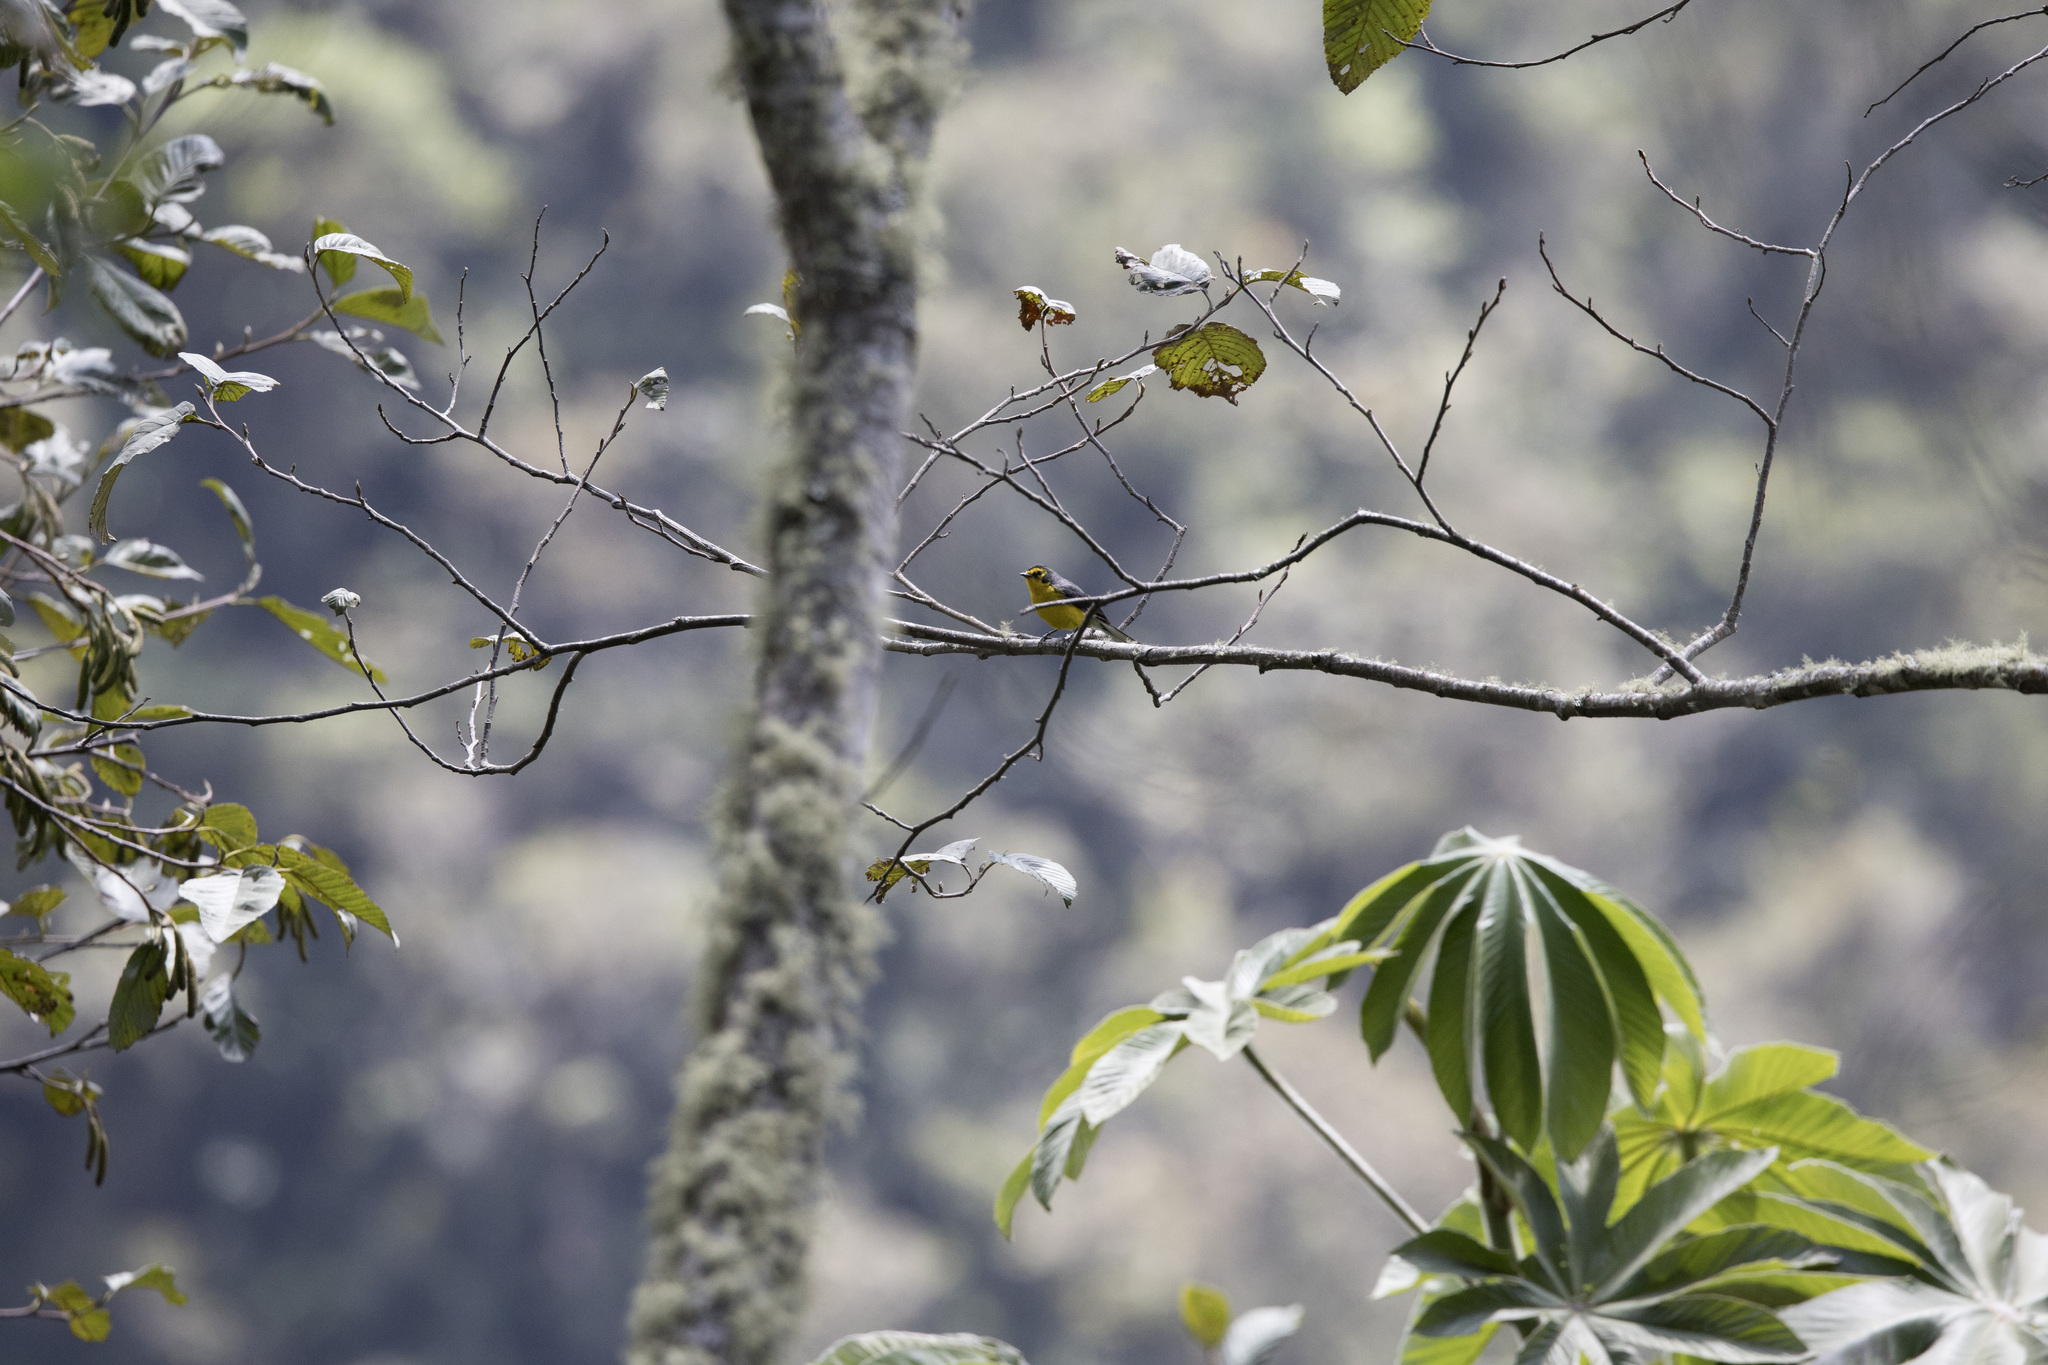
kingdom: Animalia
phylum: Chordata
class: Aves
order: Passeriformes
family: Parulidae
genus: Myioborus
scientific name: Myioborus melanocephalus
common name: Spectacled whitestart
